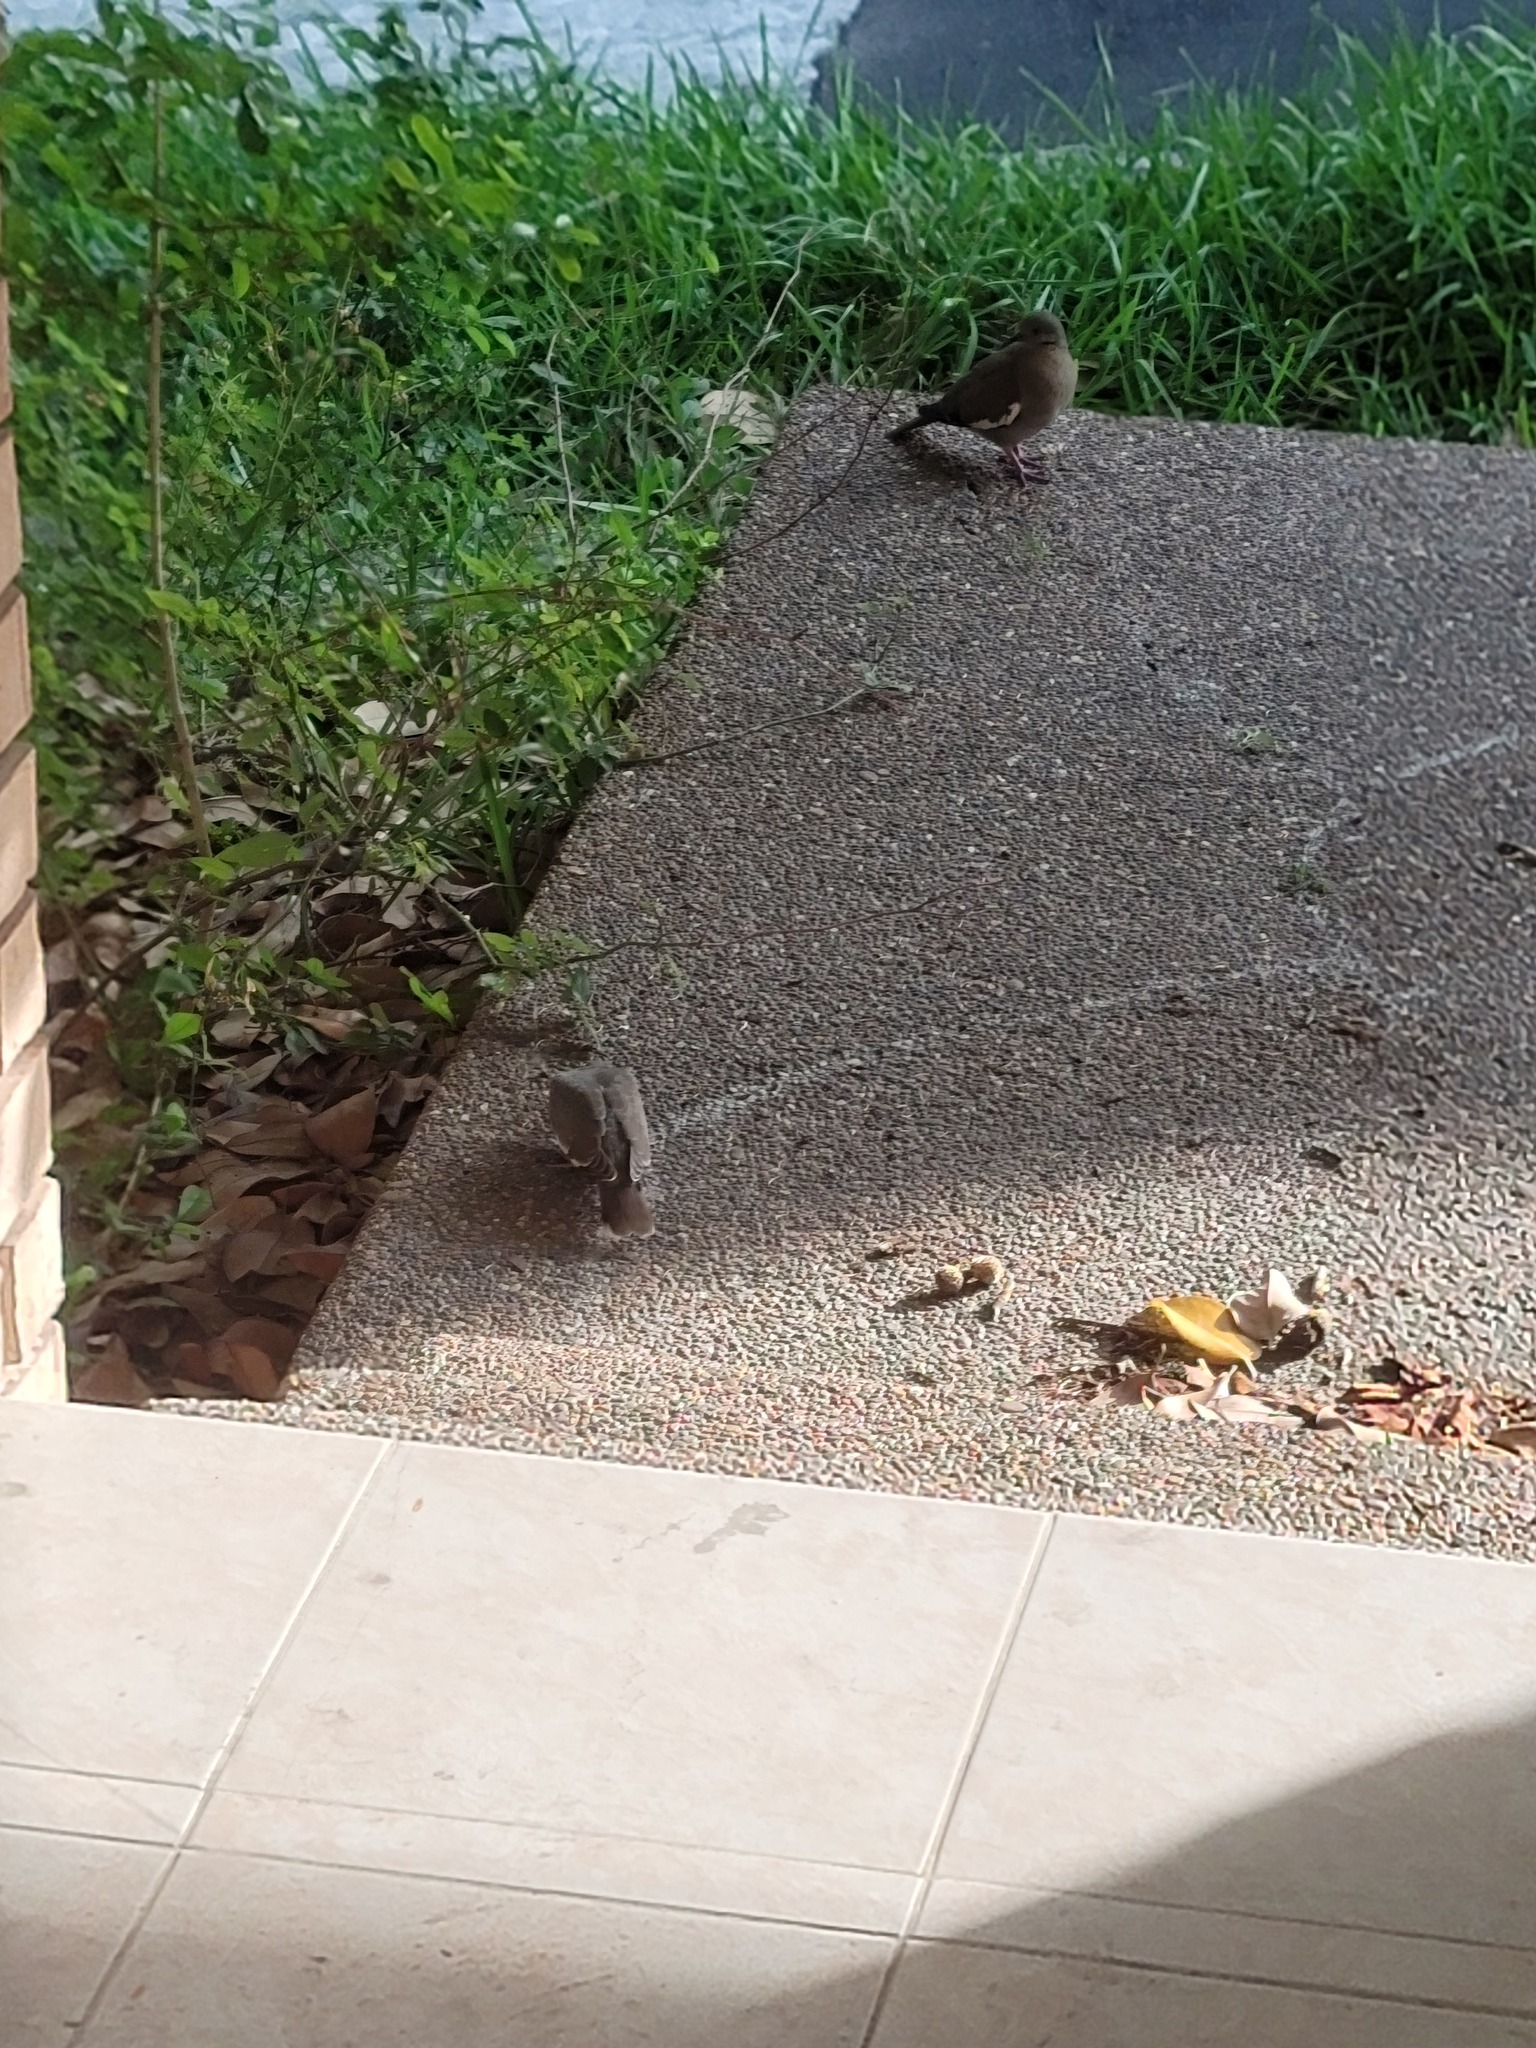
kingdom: Animalia
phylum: Chordata
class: Aves
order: Columbiformes
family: Columbidae
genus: Zenaida
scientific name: Zenaida asiatica
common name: White-winged dove
